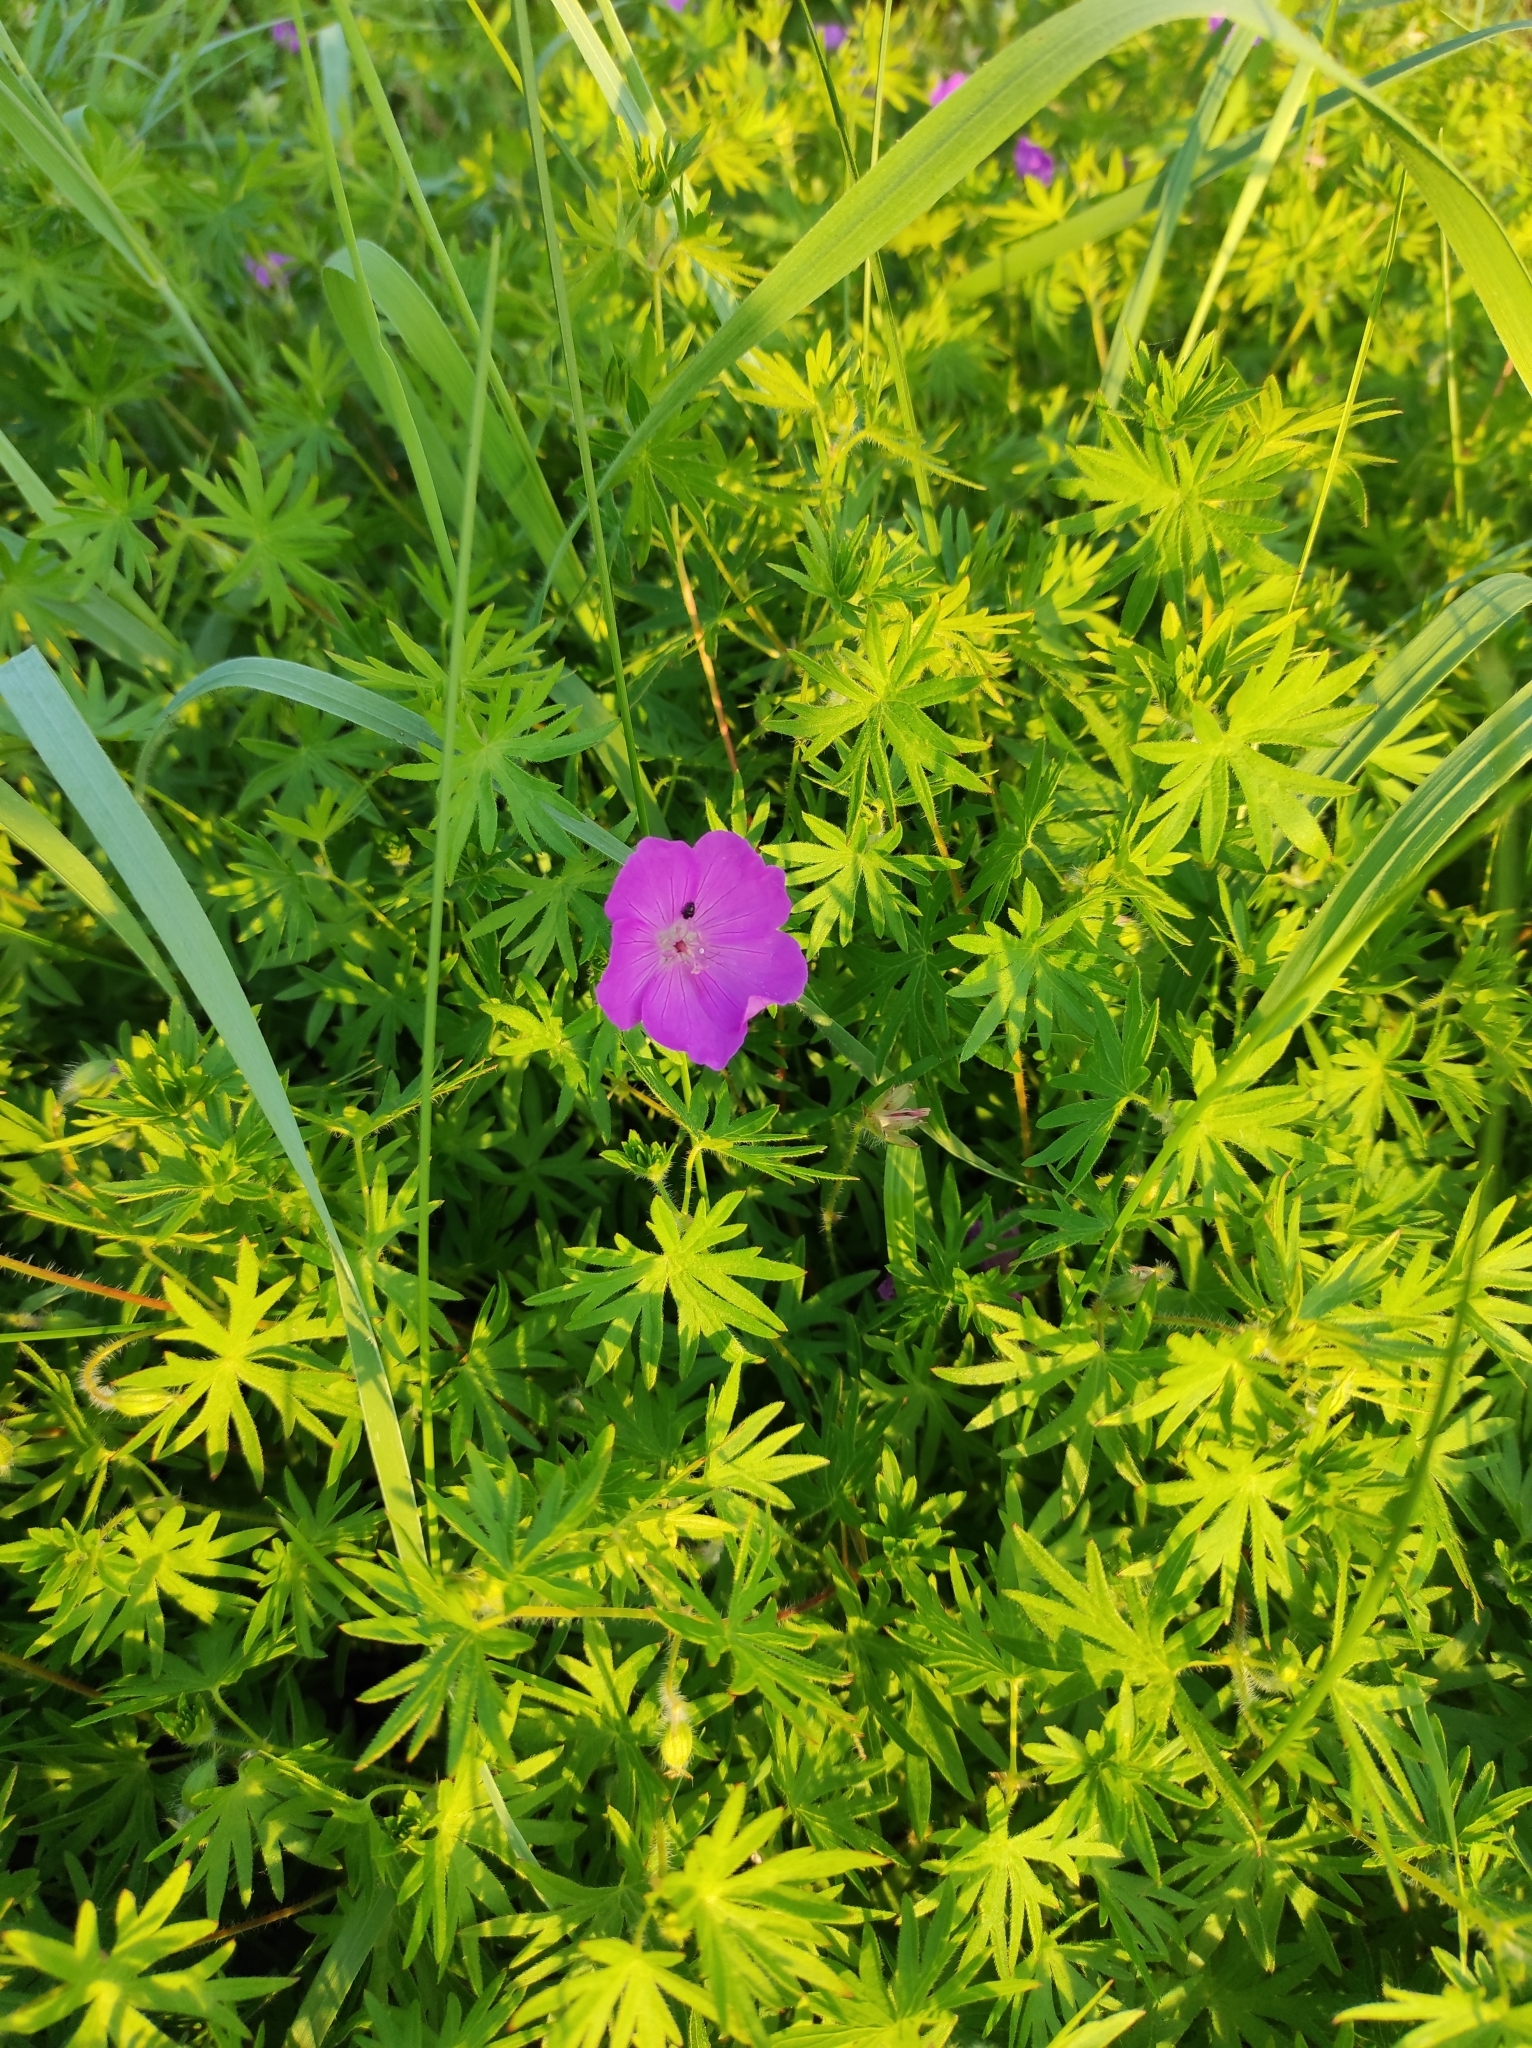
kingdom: Plantae
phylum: Tracheophyta
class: Magnoliopsida
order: Geraniales
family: Geraniaceae
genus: Geranium
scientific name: Geranium sanguineum
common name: Bloody crane's-bill
